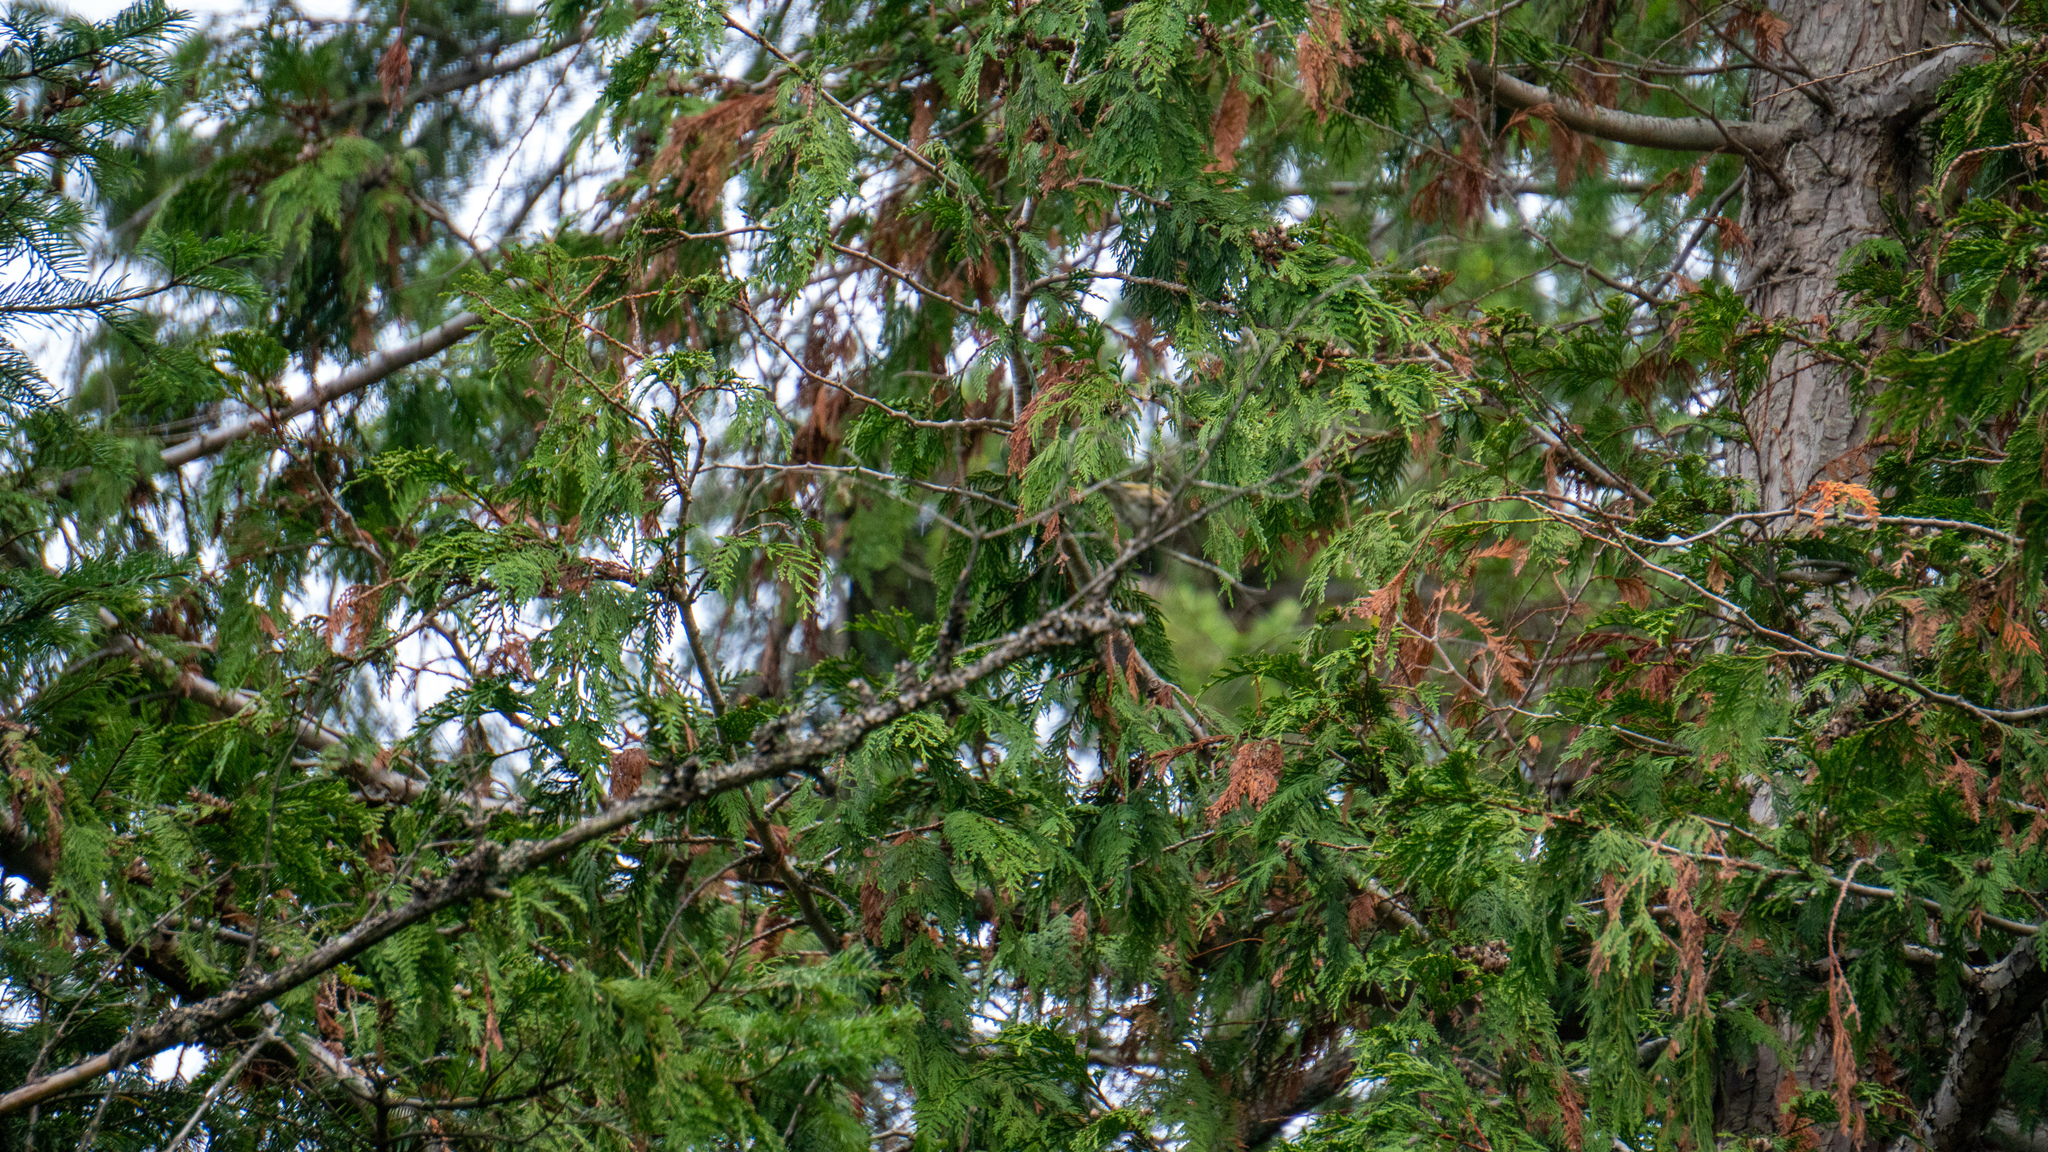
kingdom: Plantae
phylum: Tracheophyta
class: Pinopsida
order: Pinales
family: Cupressaceae
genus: Thuja
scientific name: Thuja plicata
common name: Western red-cedar
